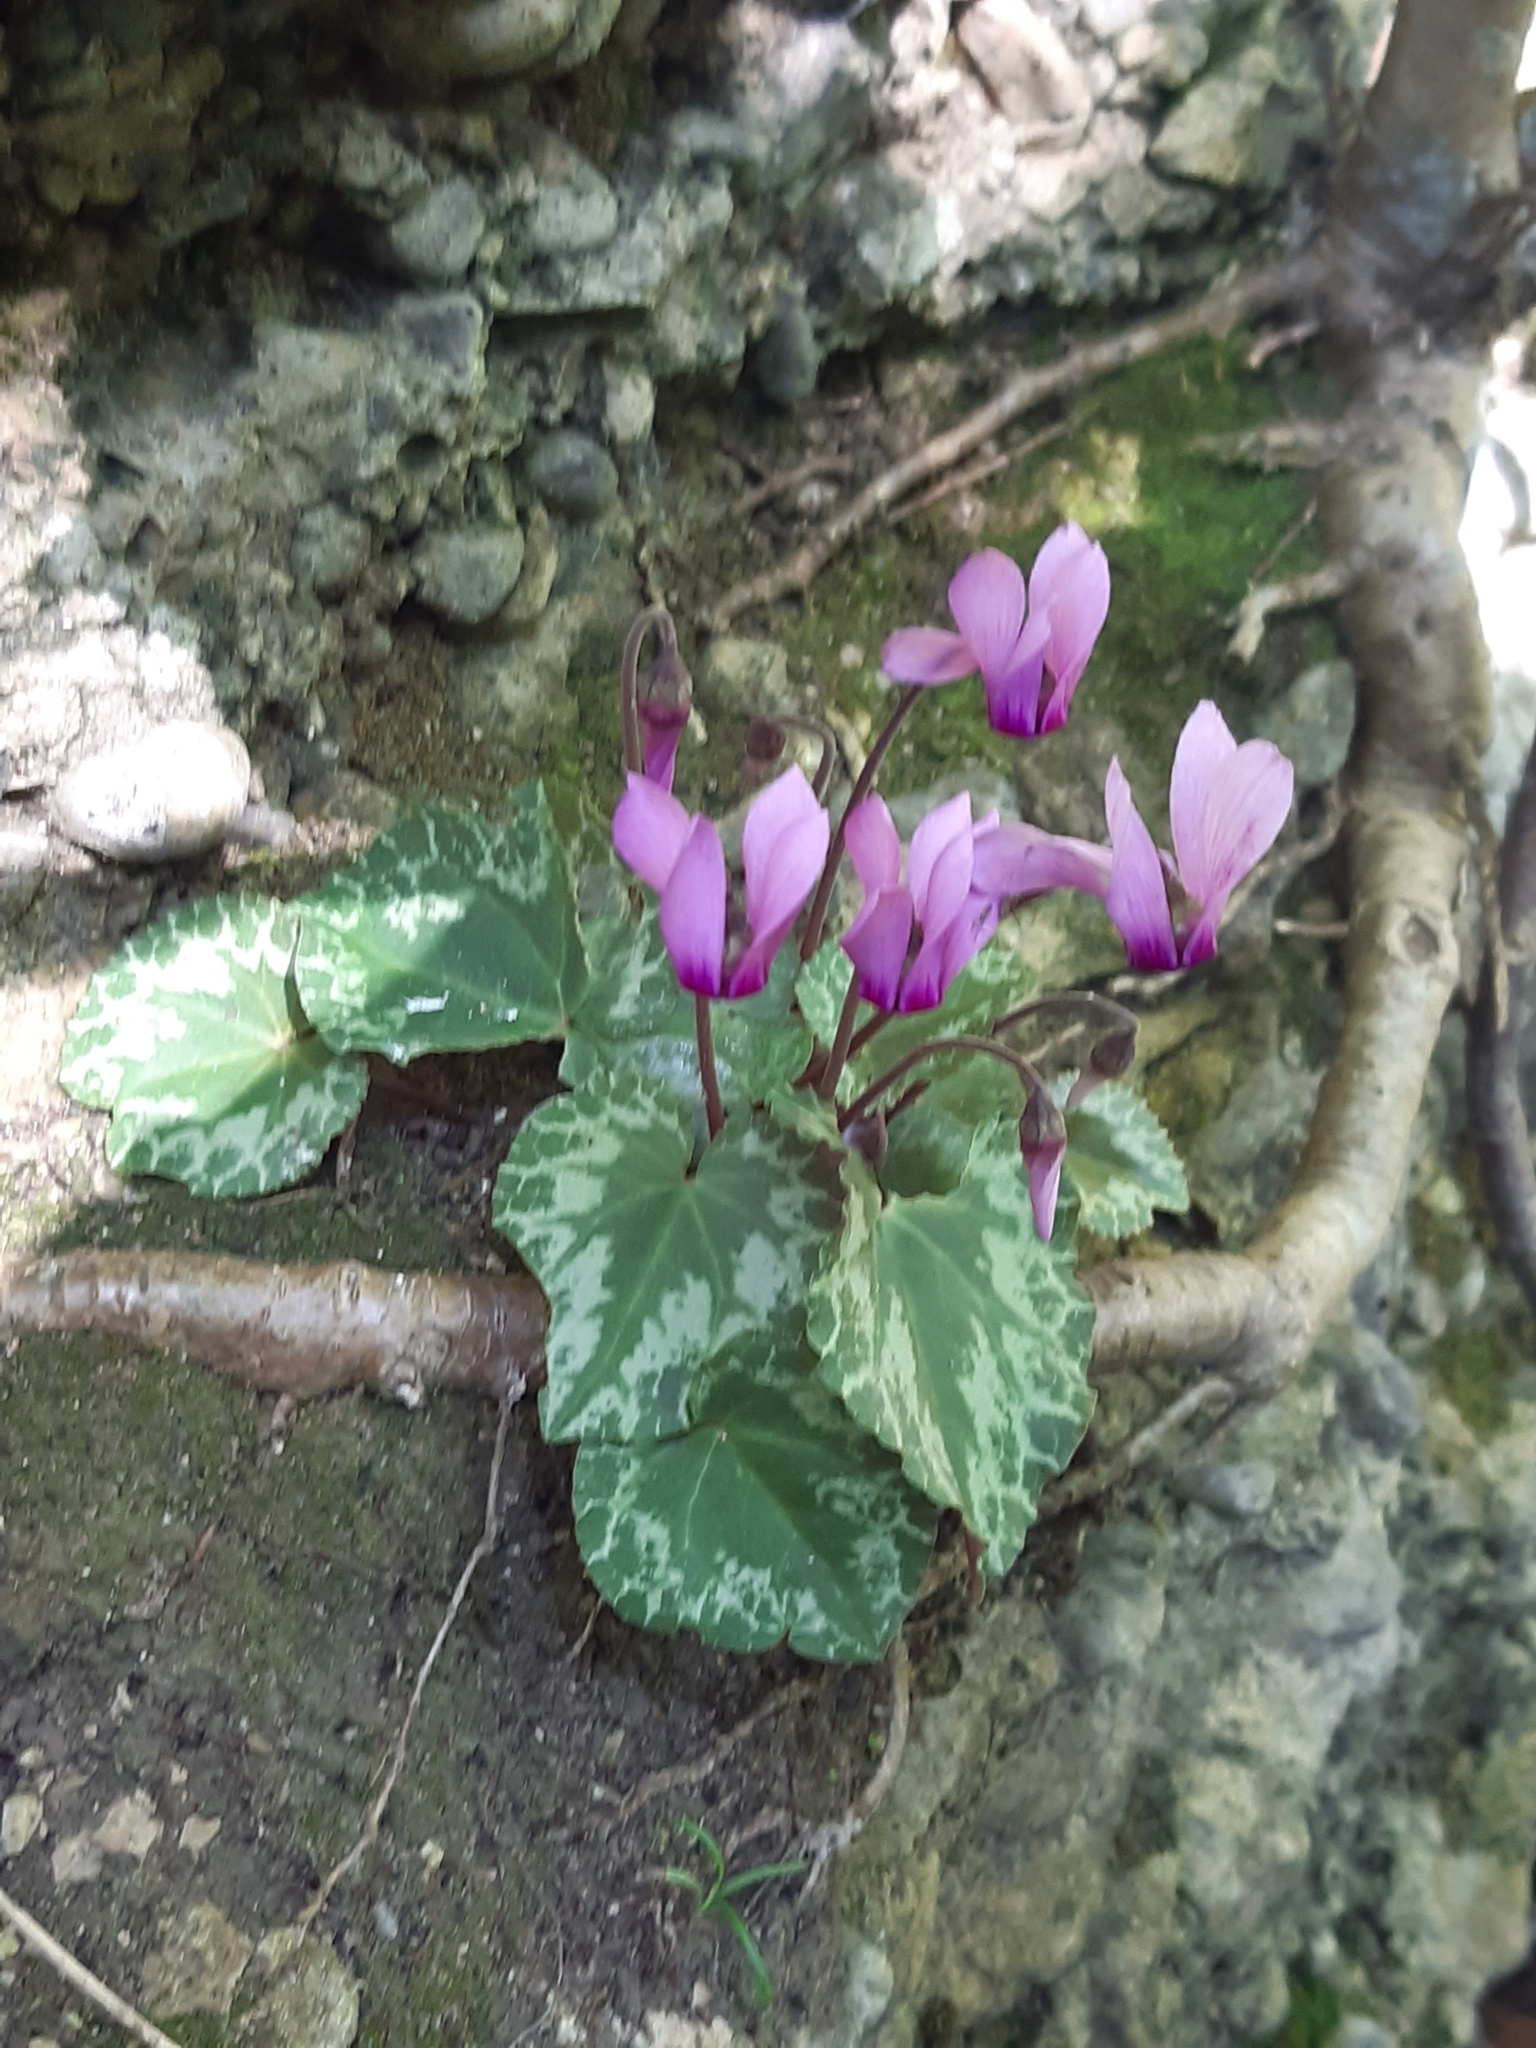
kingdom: Plantae
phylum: Tracheophyta
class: Magnoliopsida
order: Ericales
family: Primulaceae
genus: Cyclamen
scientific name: Cyclamen purpurascens
